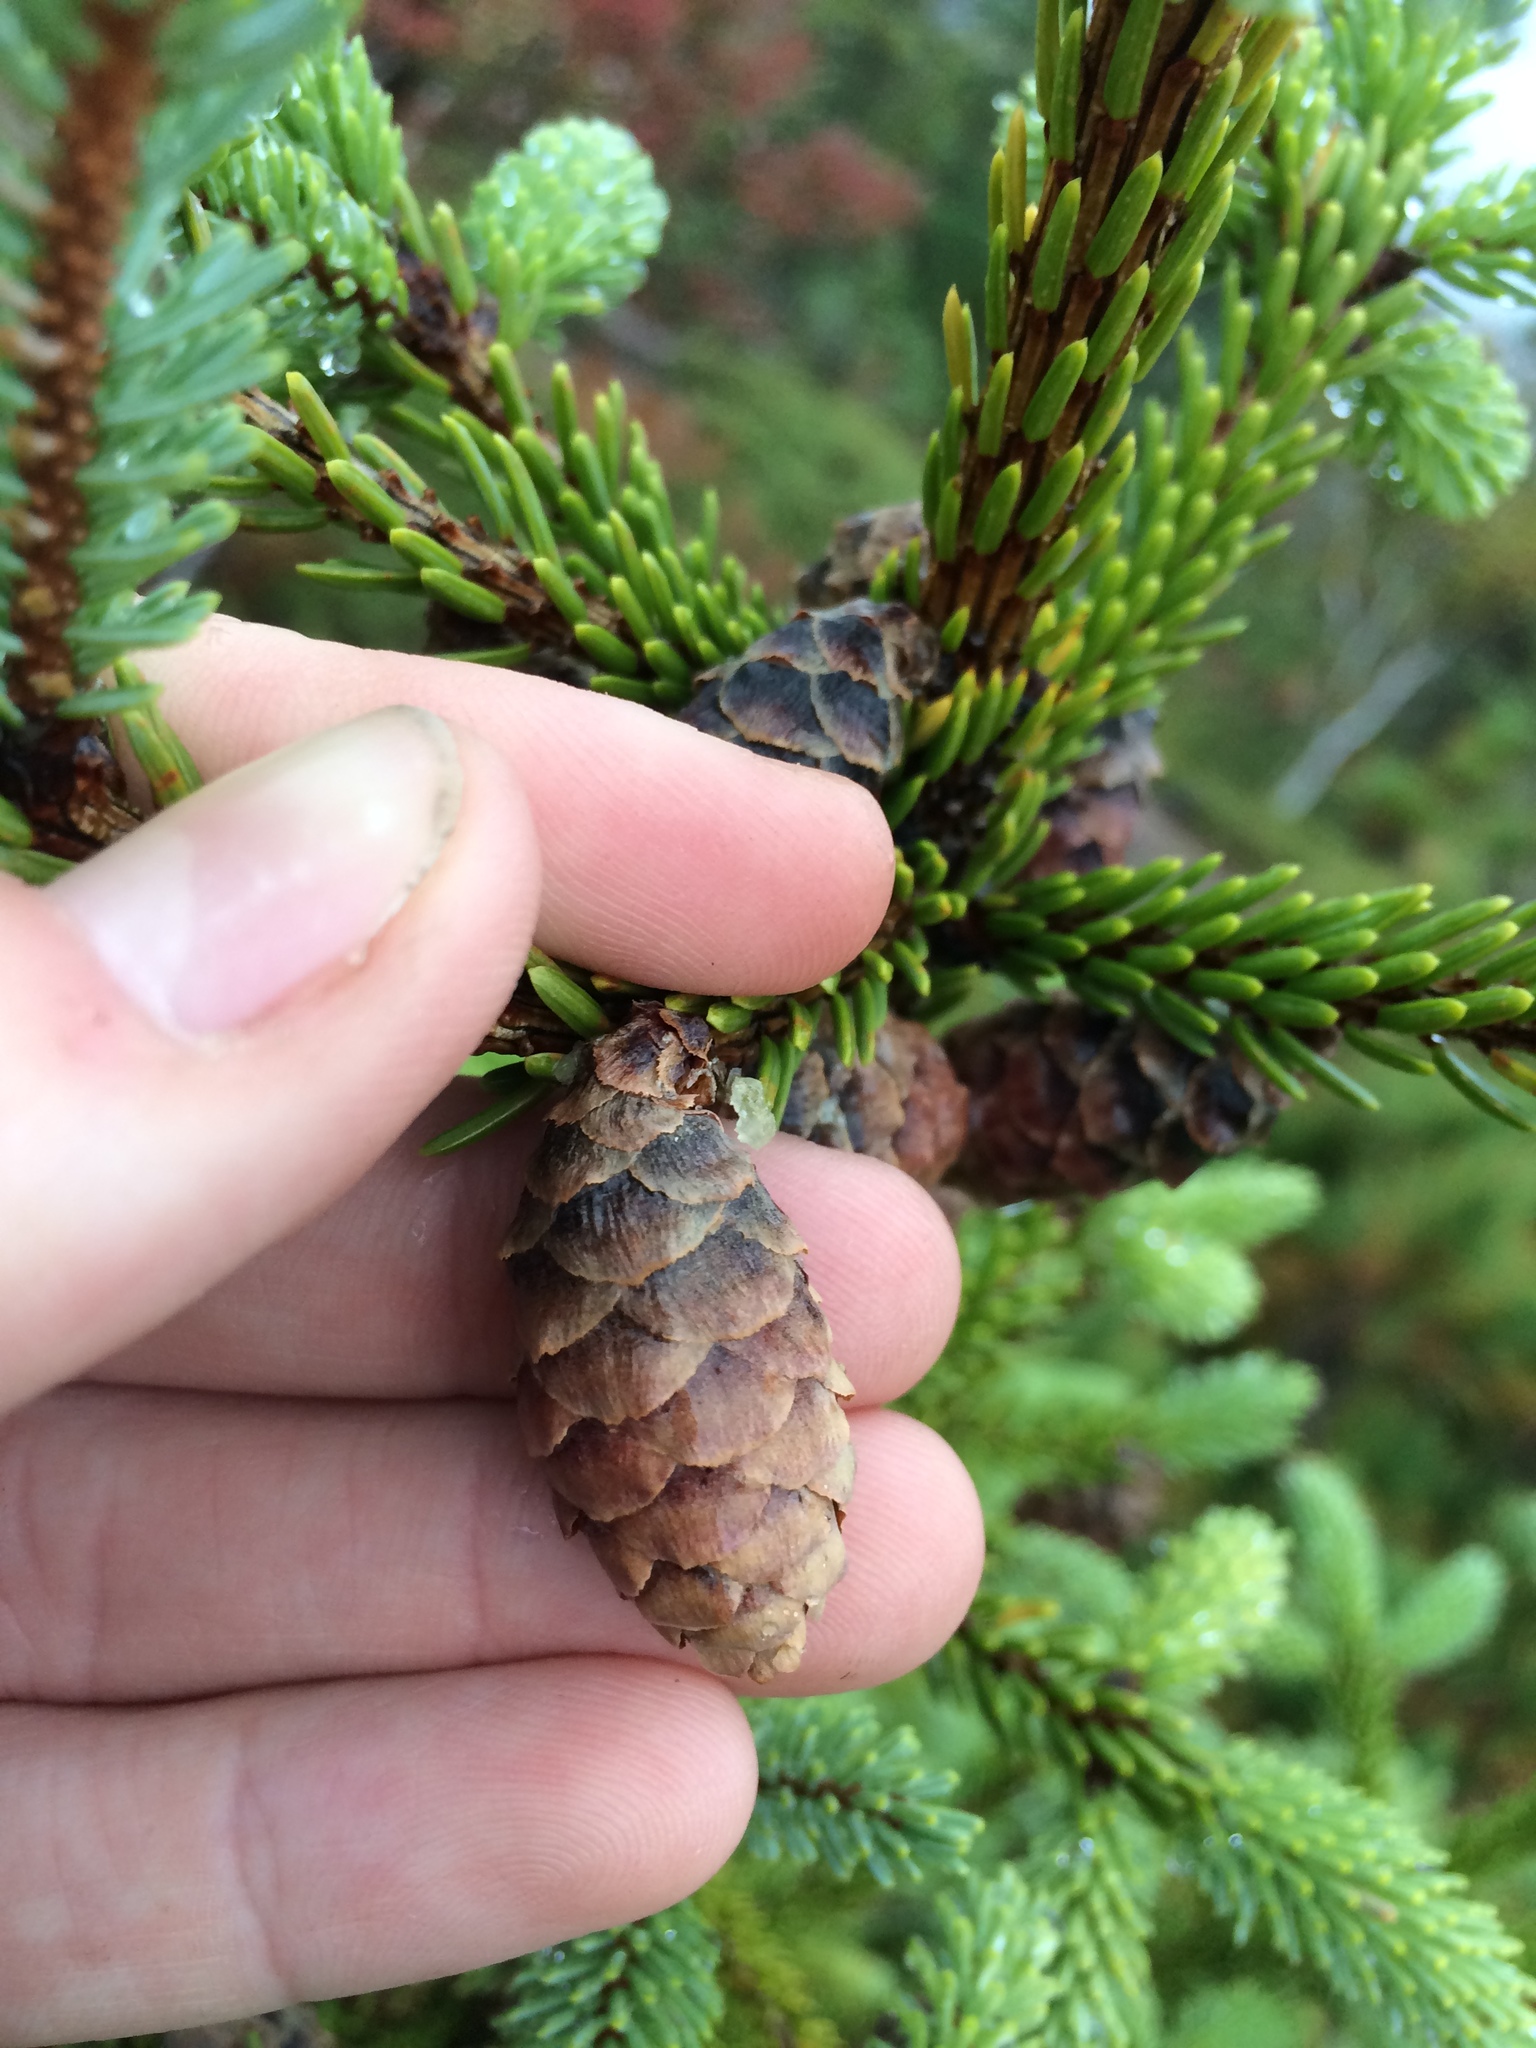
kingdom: Plantae
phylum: Tracheophyta
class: Pinopsida
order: Pinales
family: Pinaceae
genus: Picea
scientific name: Picea mariana
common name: Black spruce
